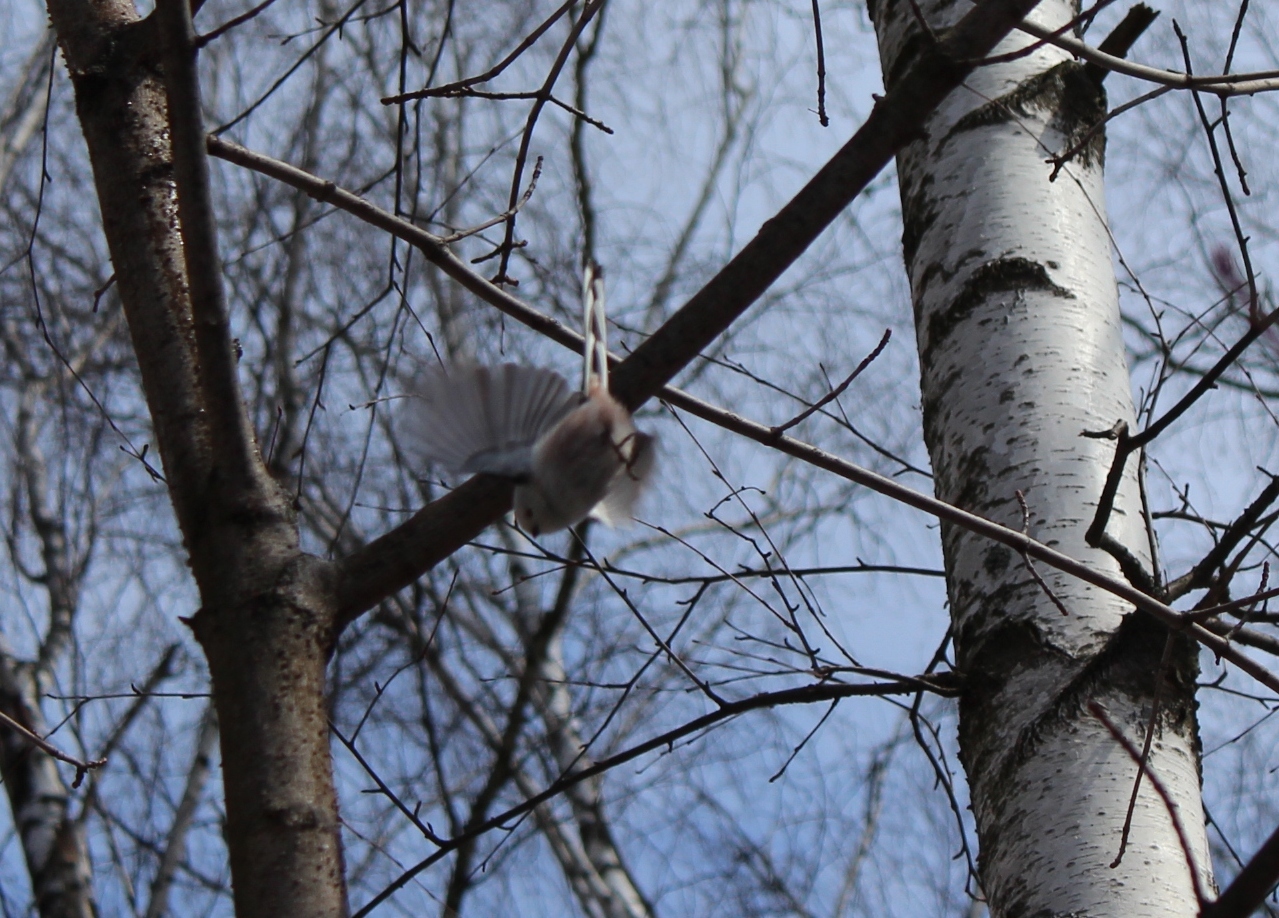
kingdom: Animalia
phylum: Chordata
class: Aves
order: Passeriformes
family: Aegithalidae
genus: Aegithalos
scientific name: Aegithalos caudatus
